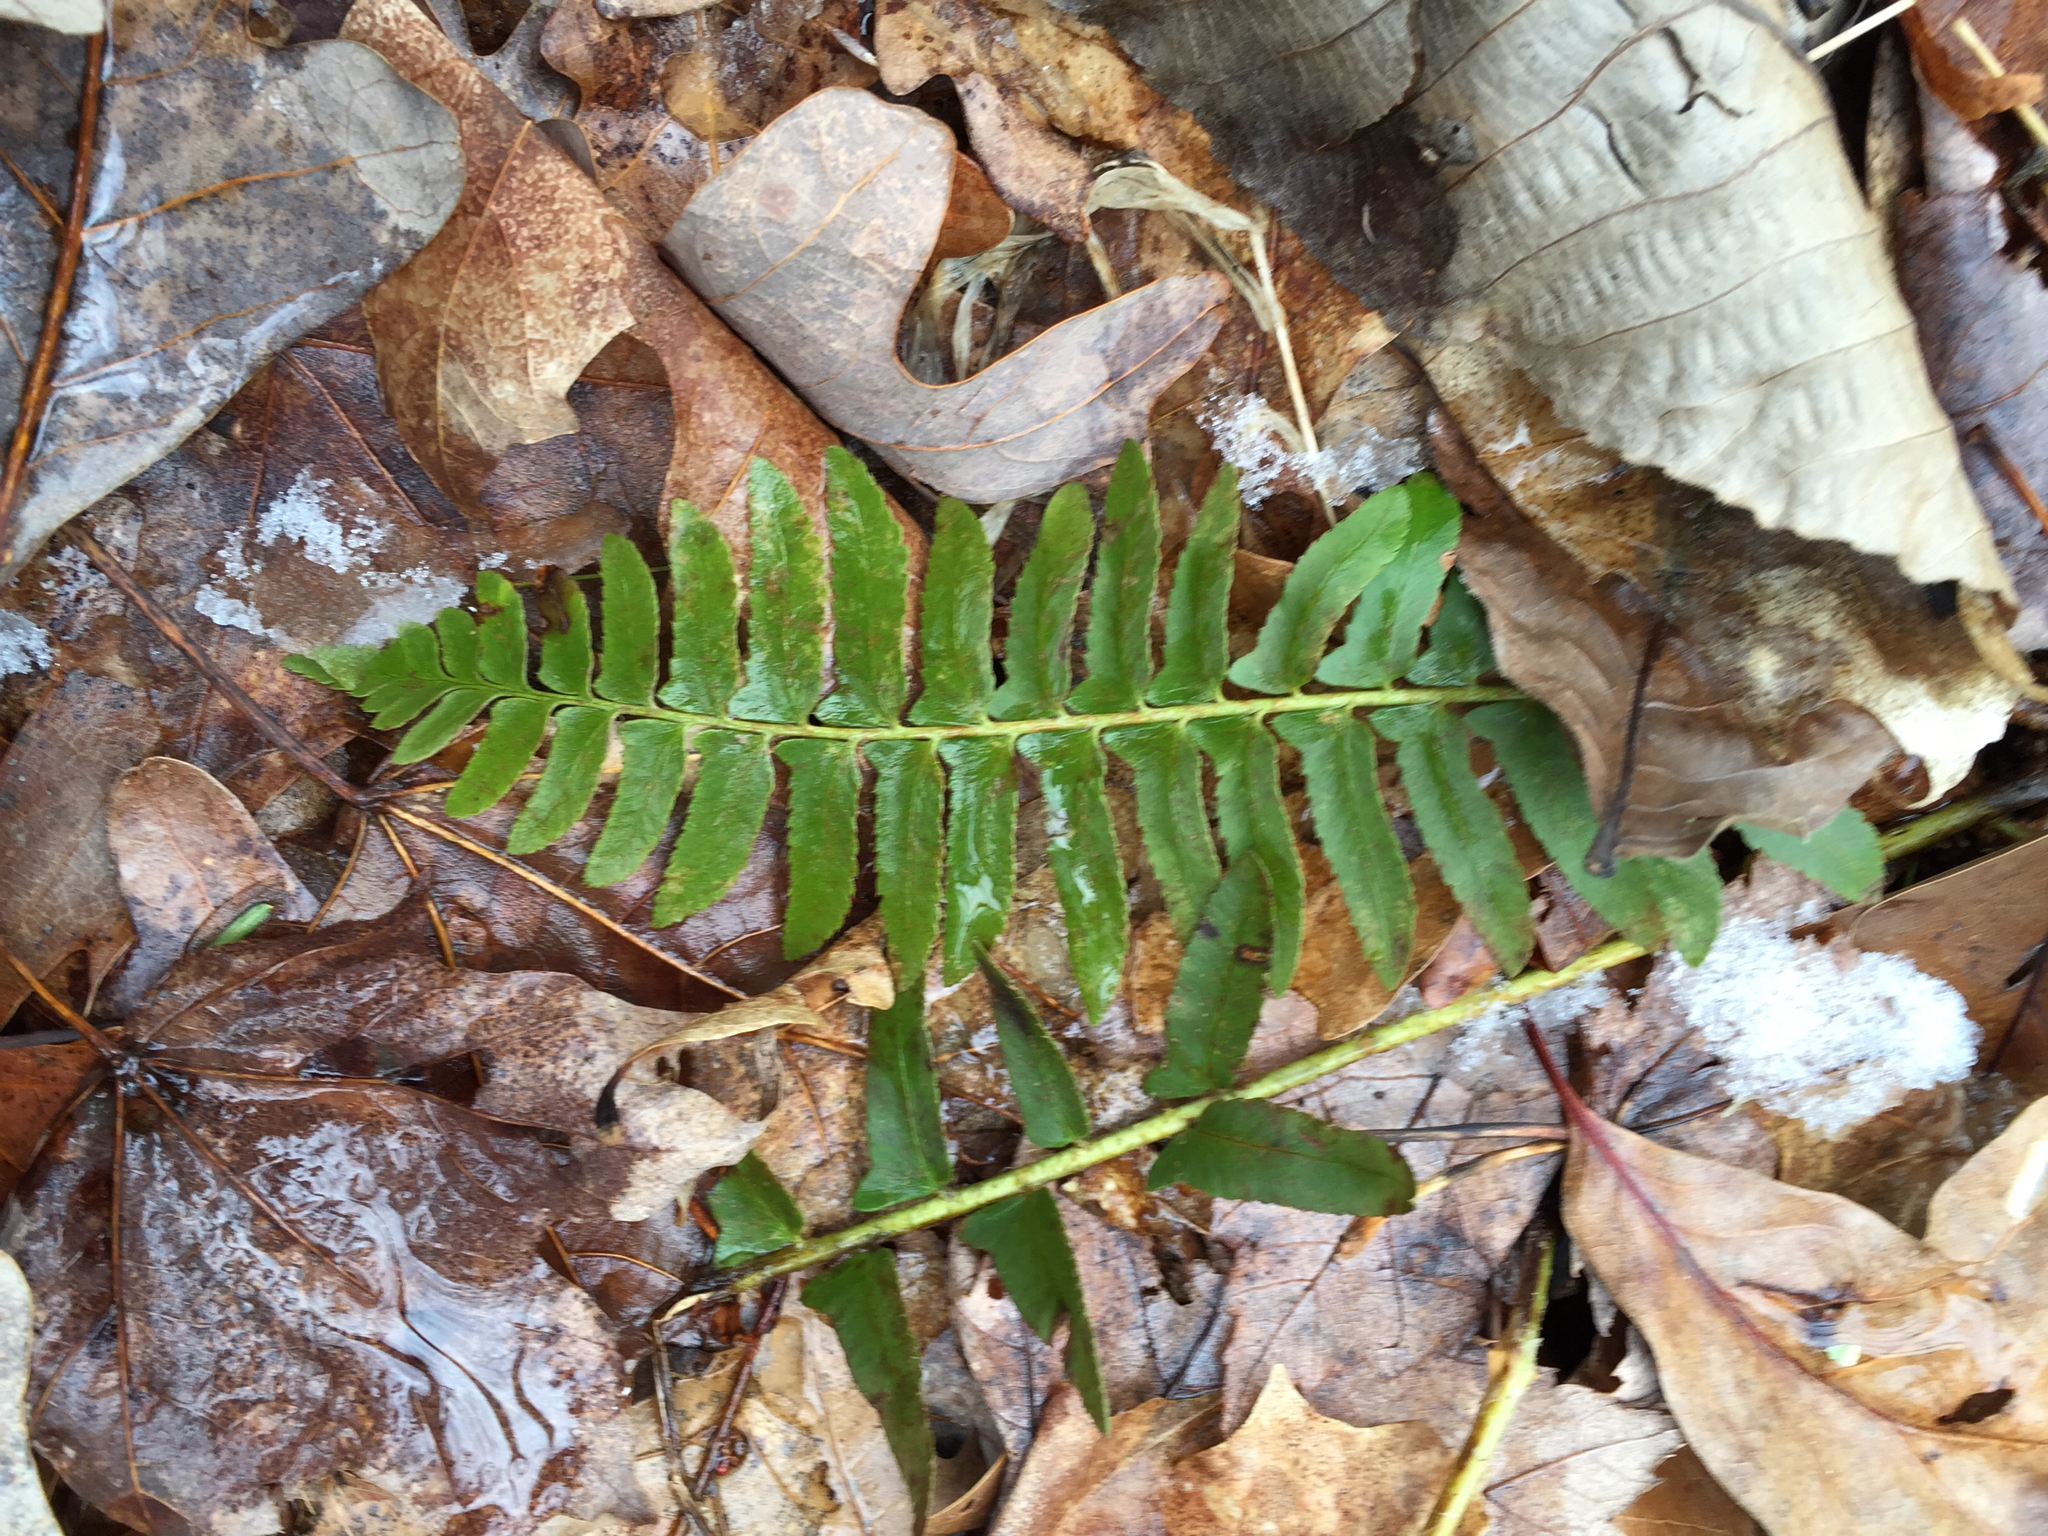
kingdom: Plantae
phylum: Tracheophyta
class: Polypodiopsida
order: Polypodiales
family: Dryopteridaceae
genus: Polystichum
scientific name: Polystichum acrostichoides
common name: Christmas fern
